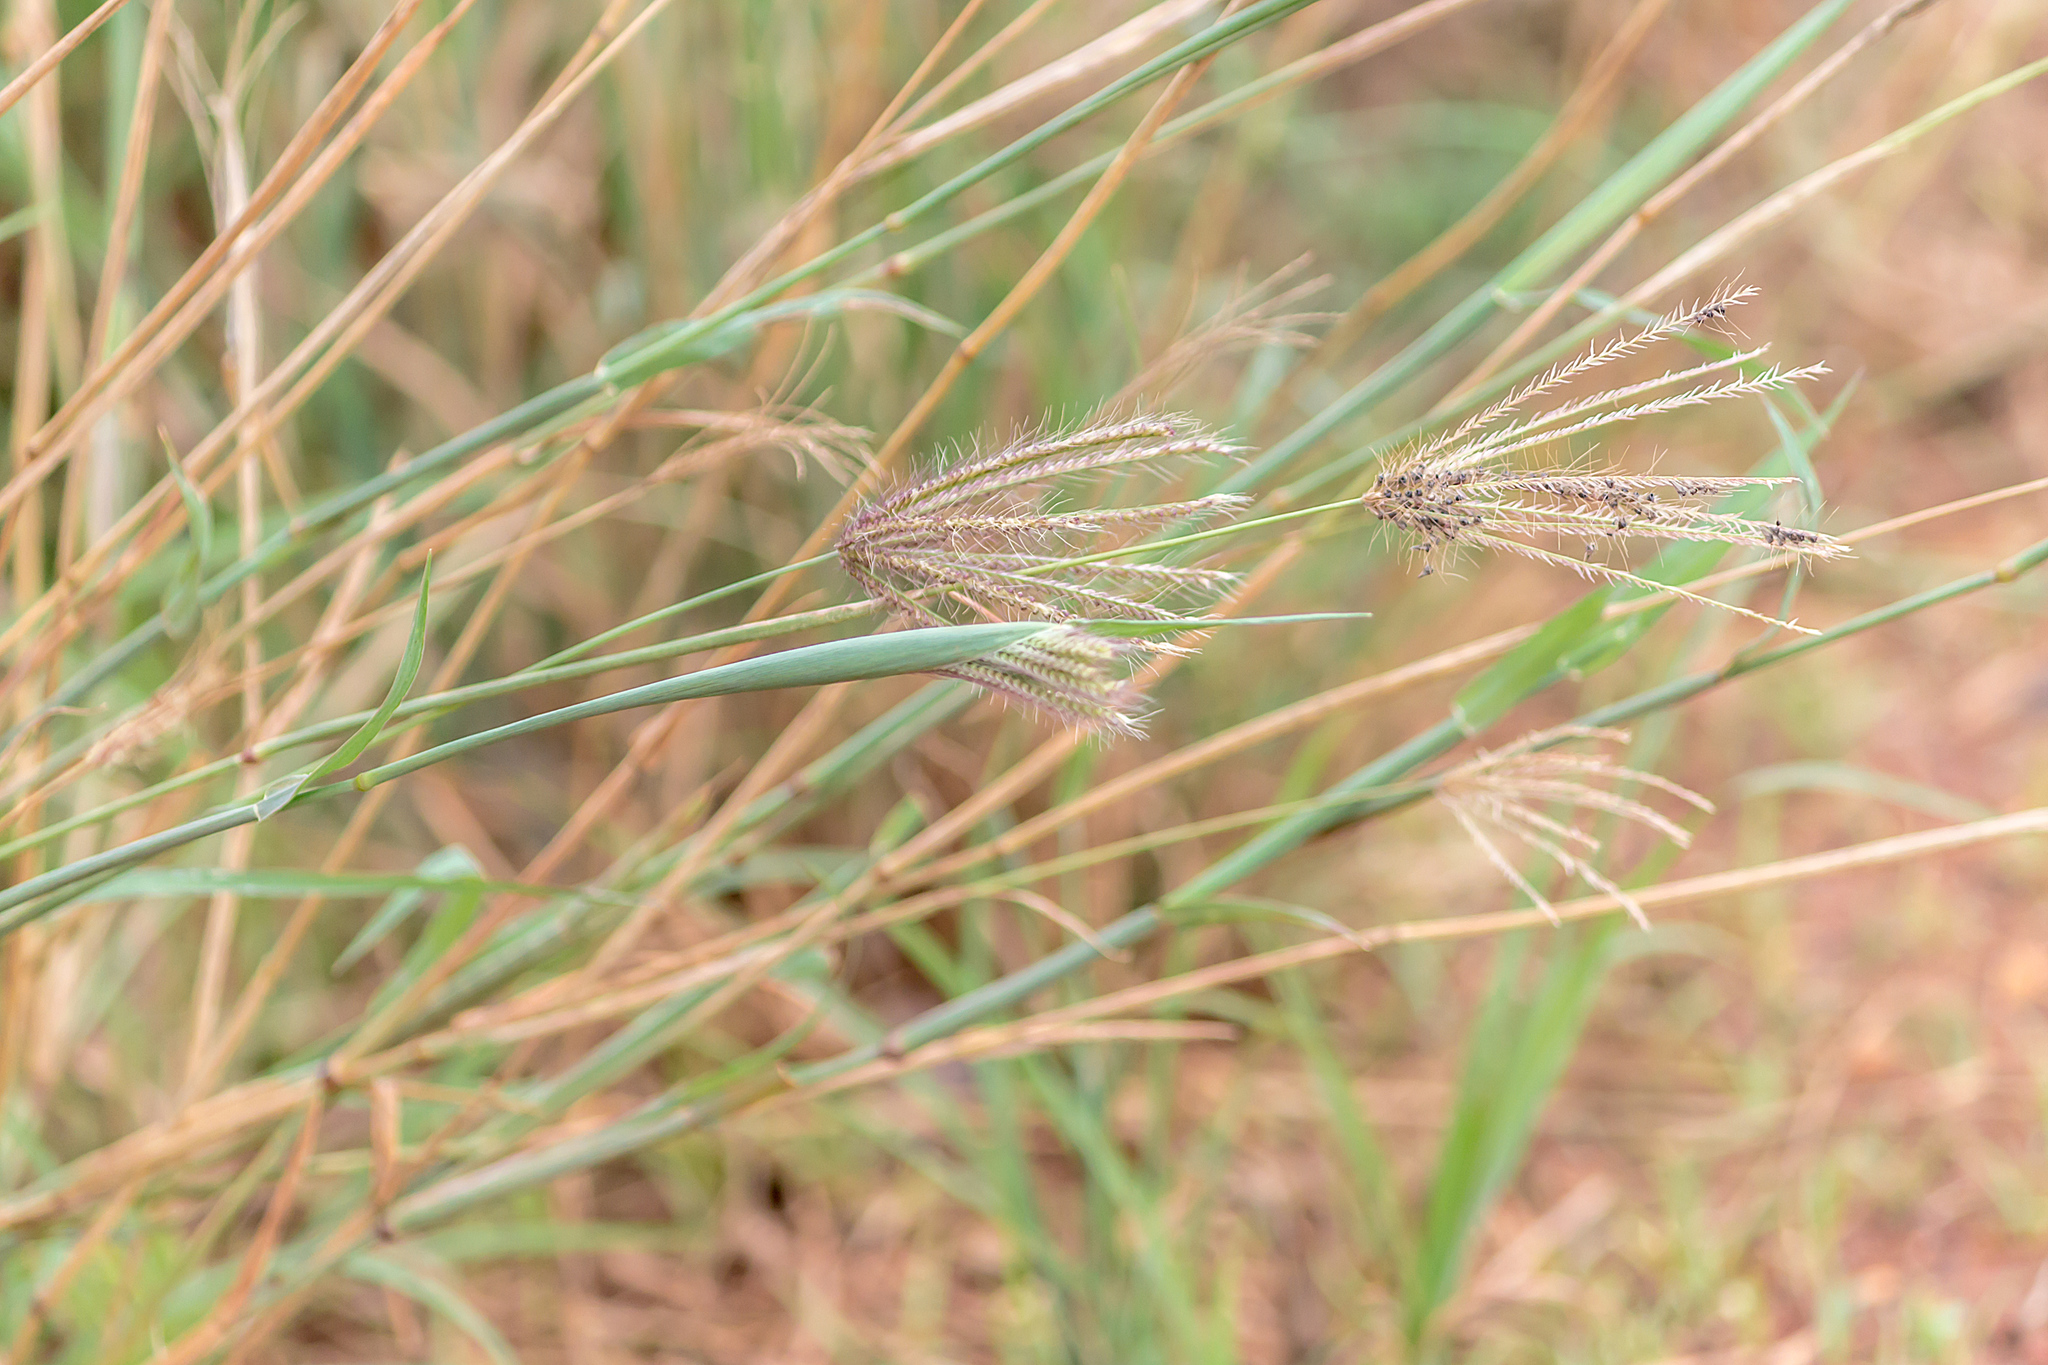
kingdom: Plantae
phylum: Tracheophyta
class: Liliopsida
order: Poales
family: Poaceae
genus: Chloris
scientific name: Chloris barbata
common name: Swollen fingergrass
